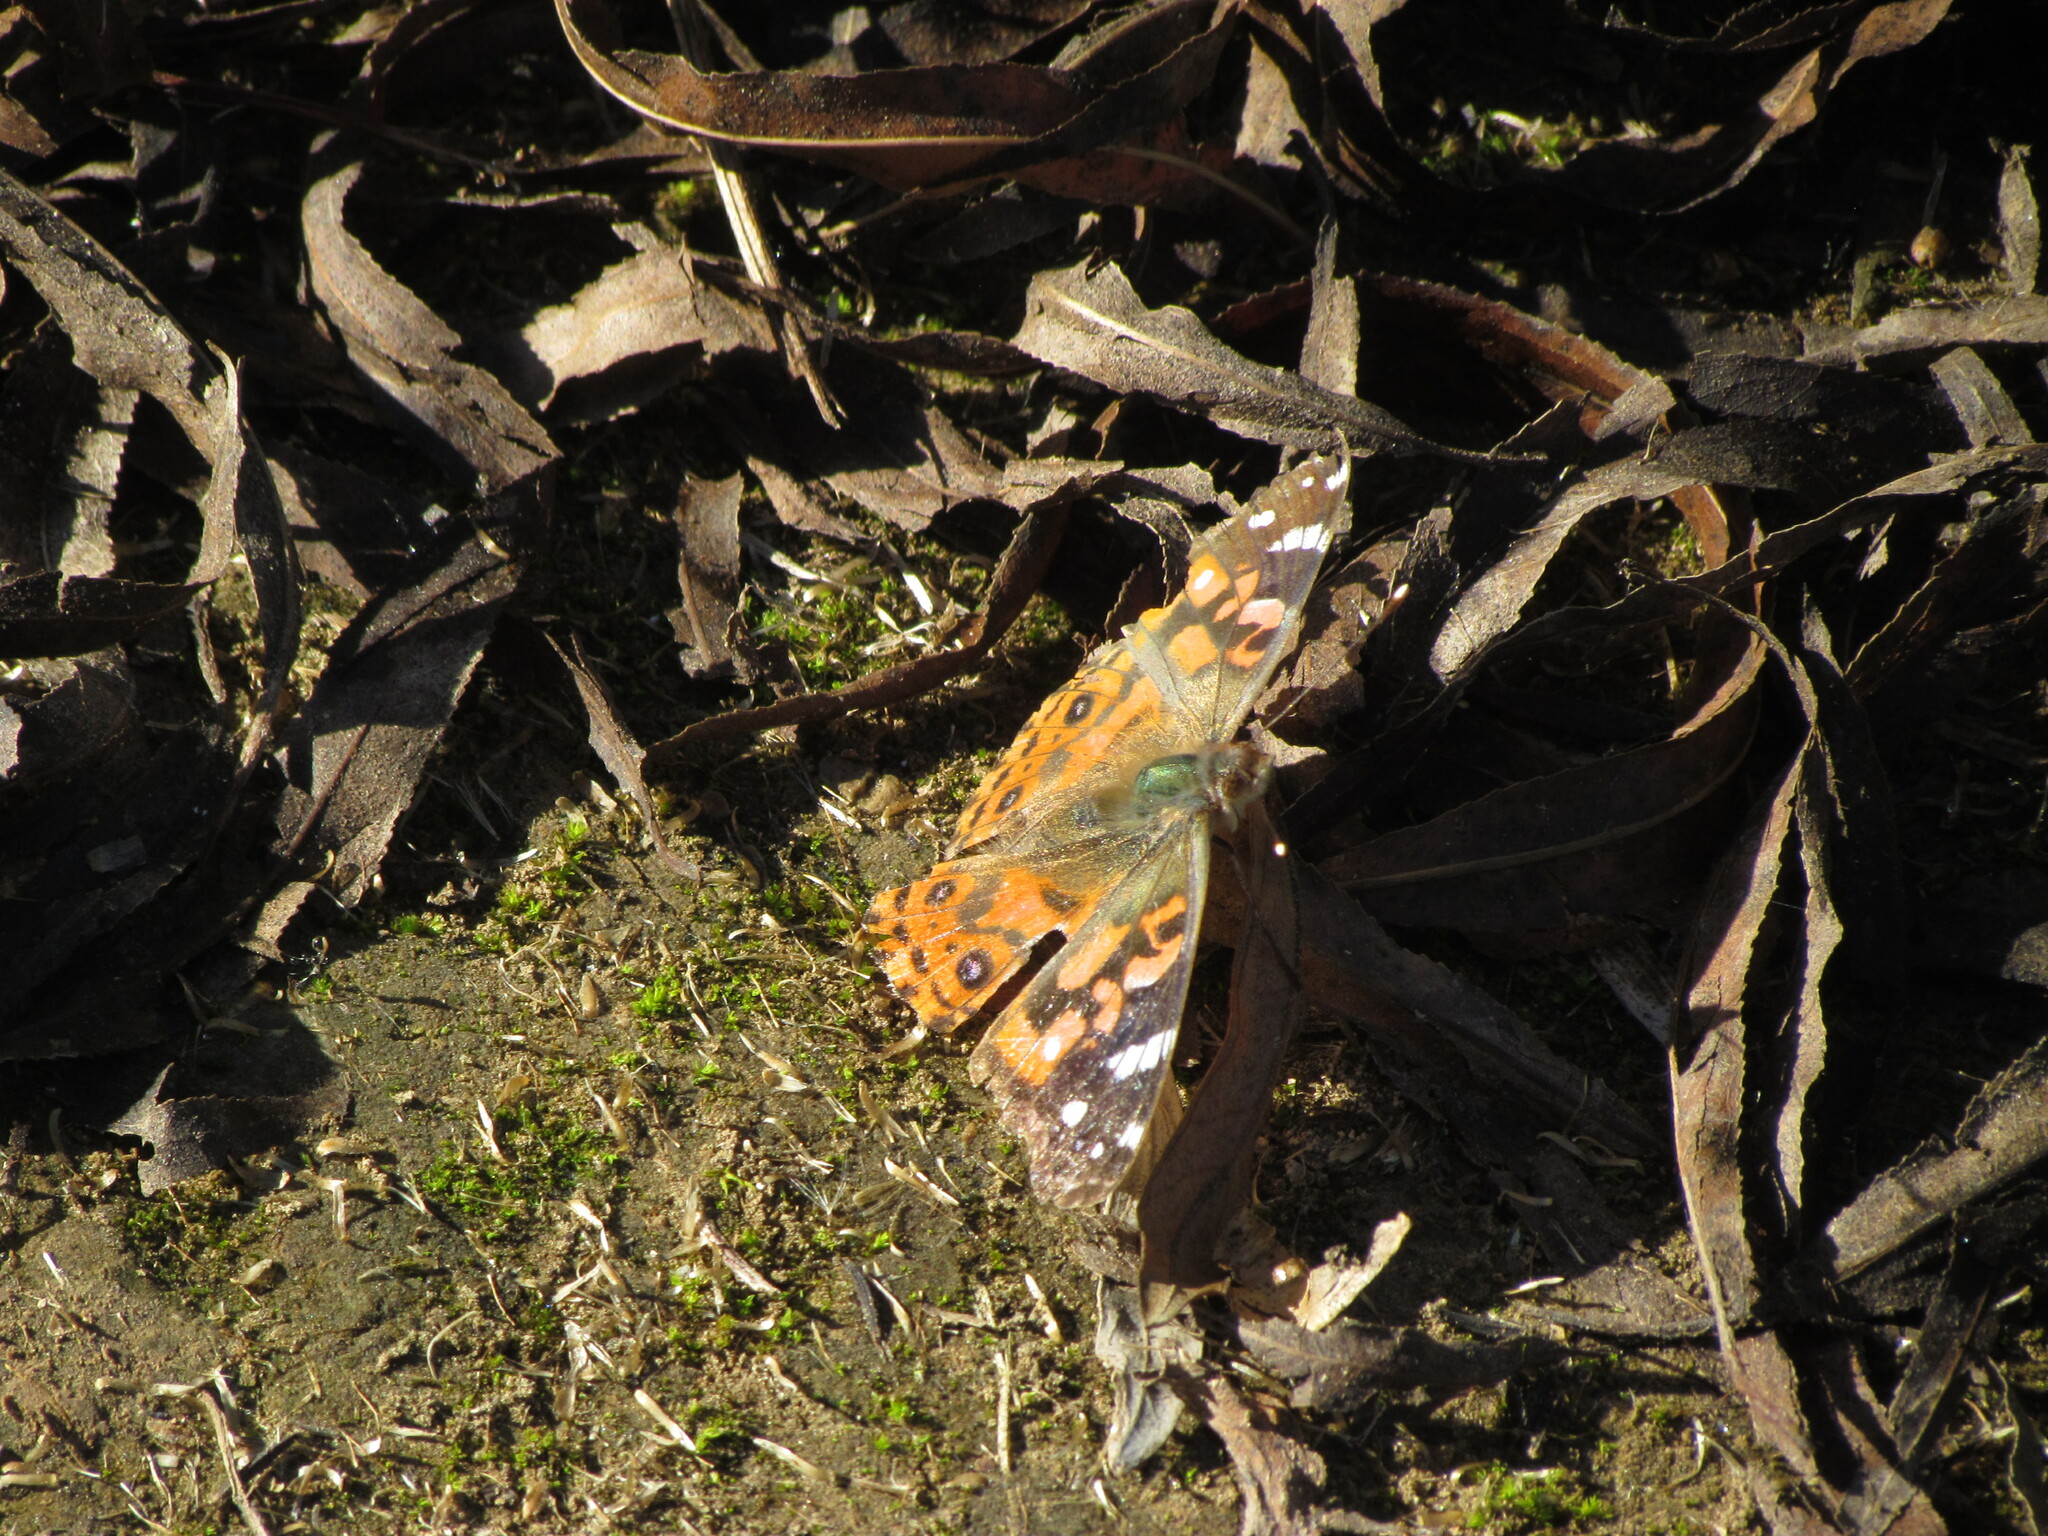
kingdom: Animalia
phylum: Arthropoda
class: Insecta
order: Lepidoptera
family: Nymphalidae
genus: Vanessa
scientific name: Vanessa braziliensis
